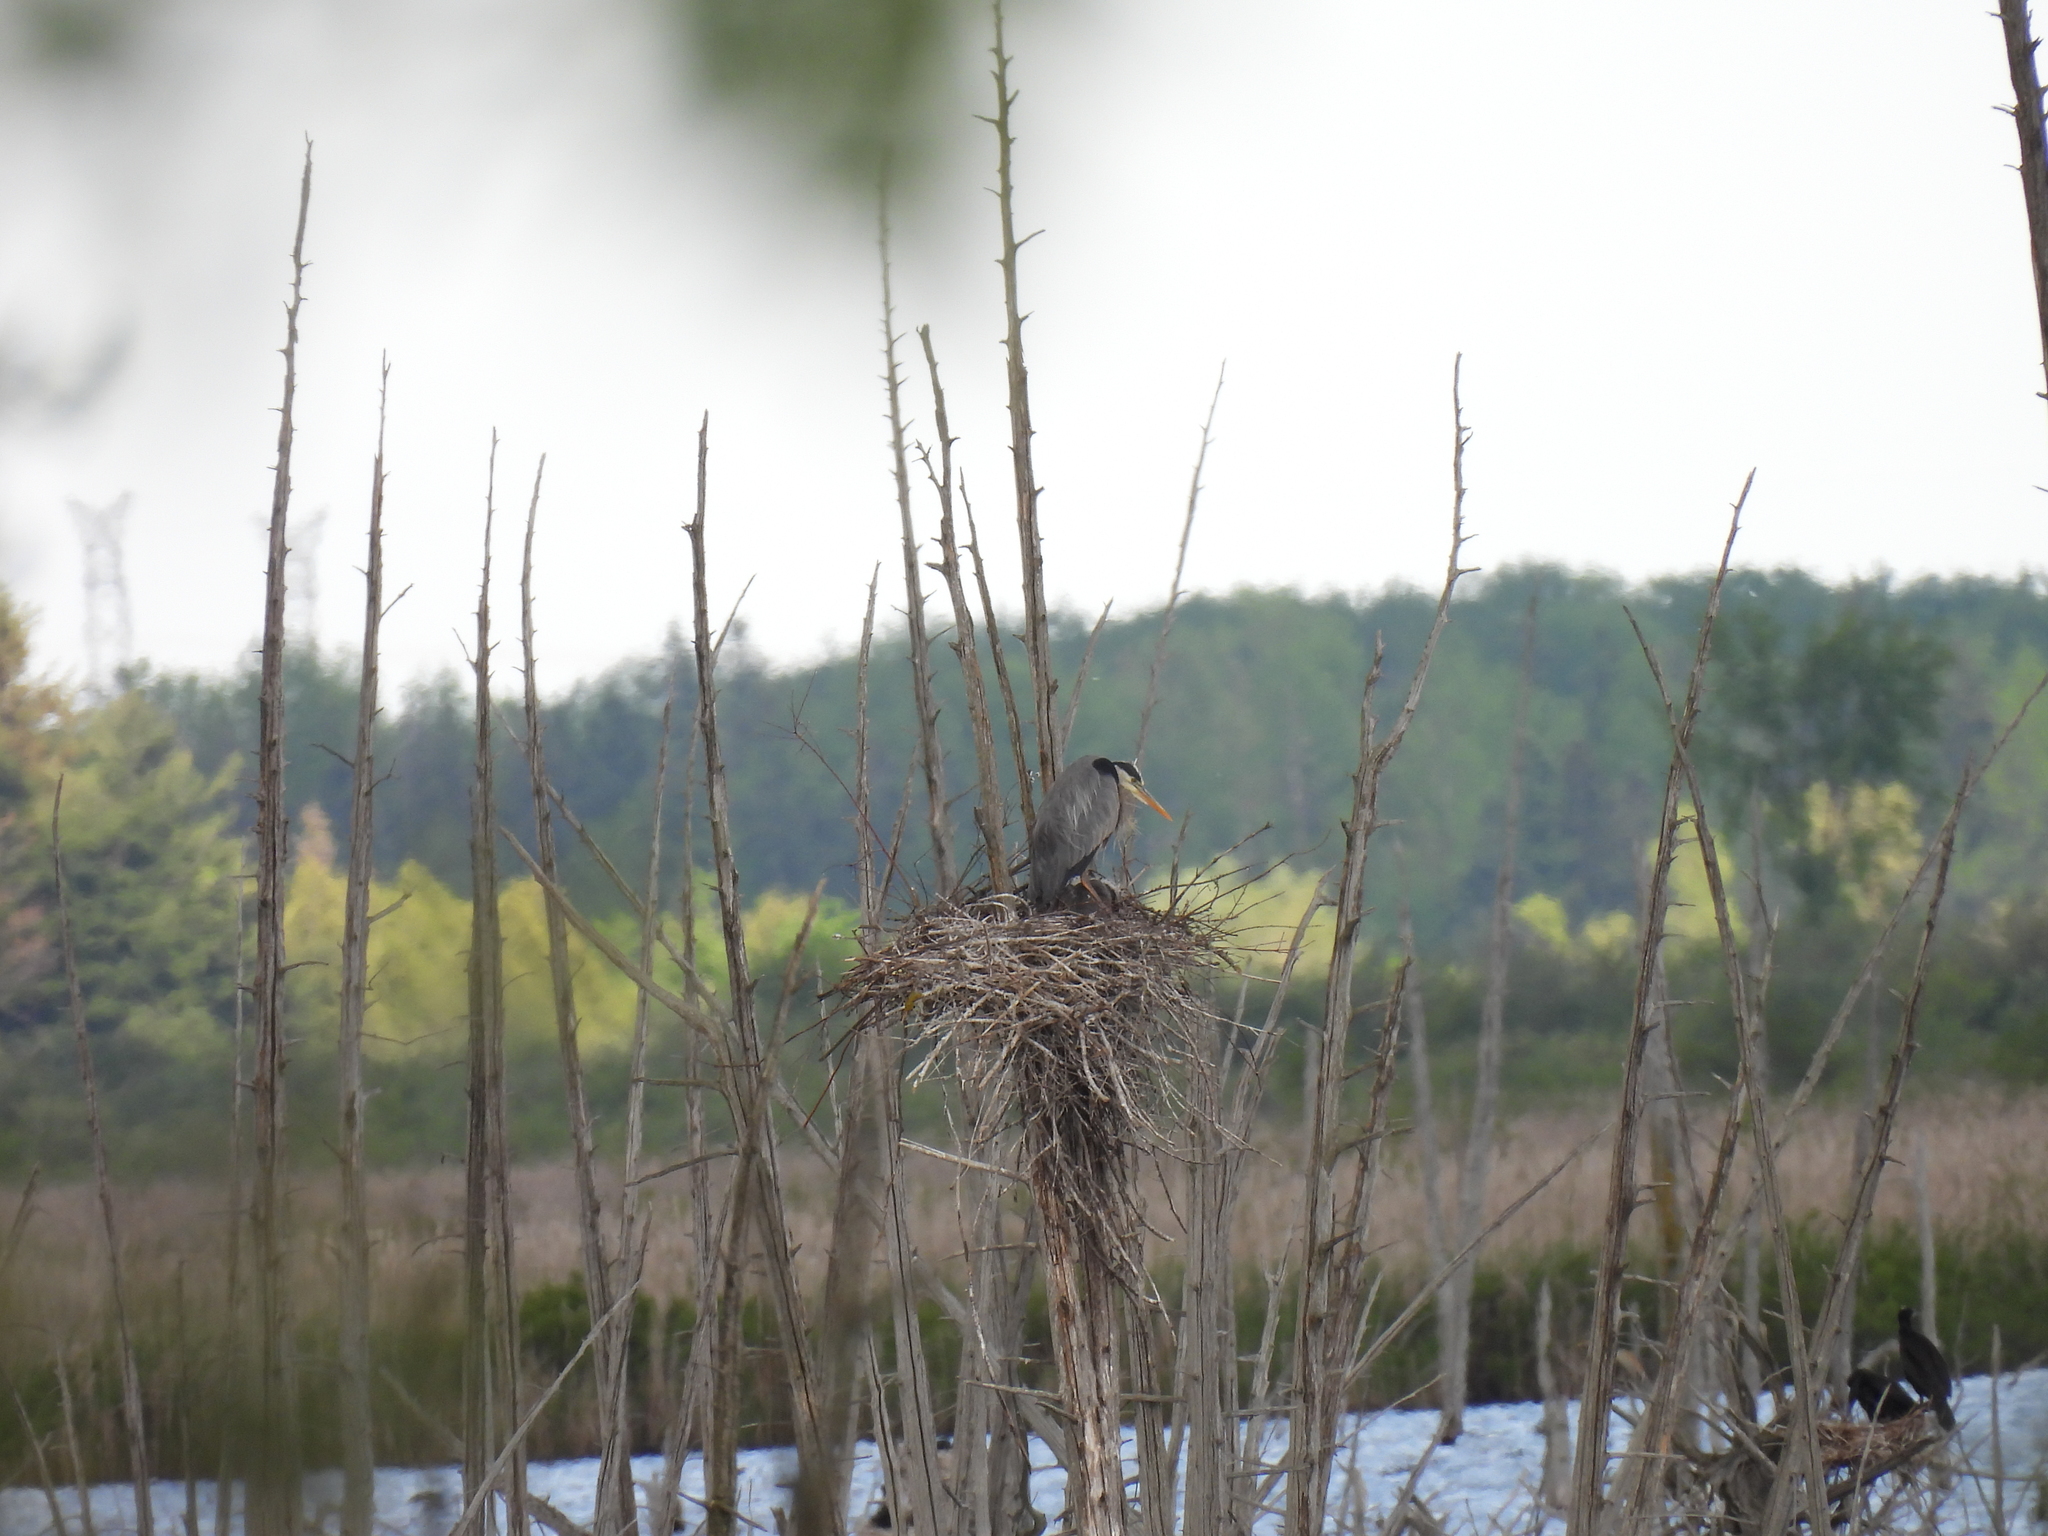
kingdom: Animalia
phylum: Chordata
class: Aves
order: Pelecaniformes
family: Ardeidae
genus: Ardea
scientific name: Ardea herodias
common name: Great blue heron
